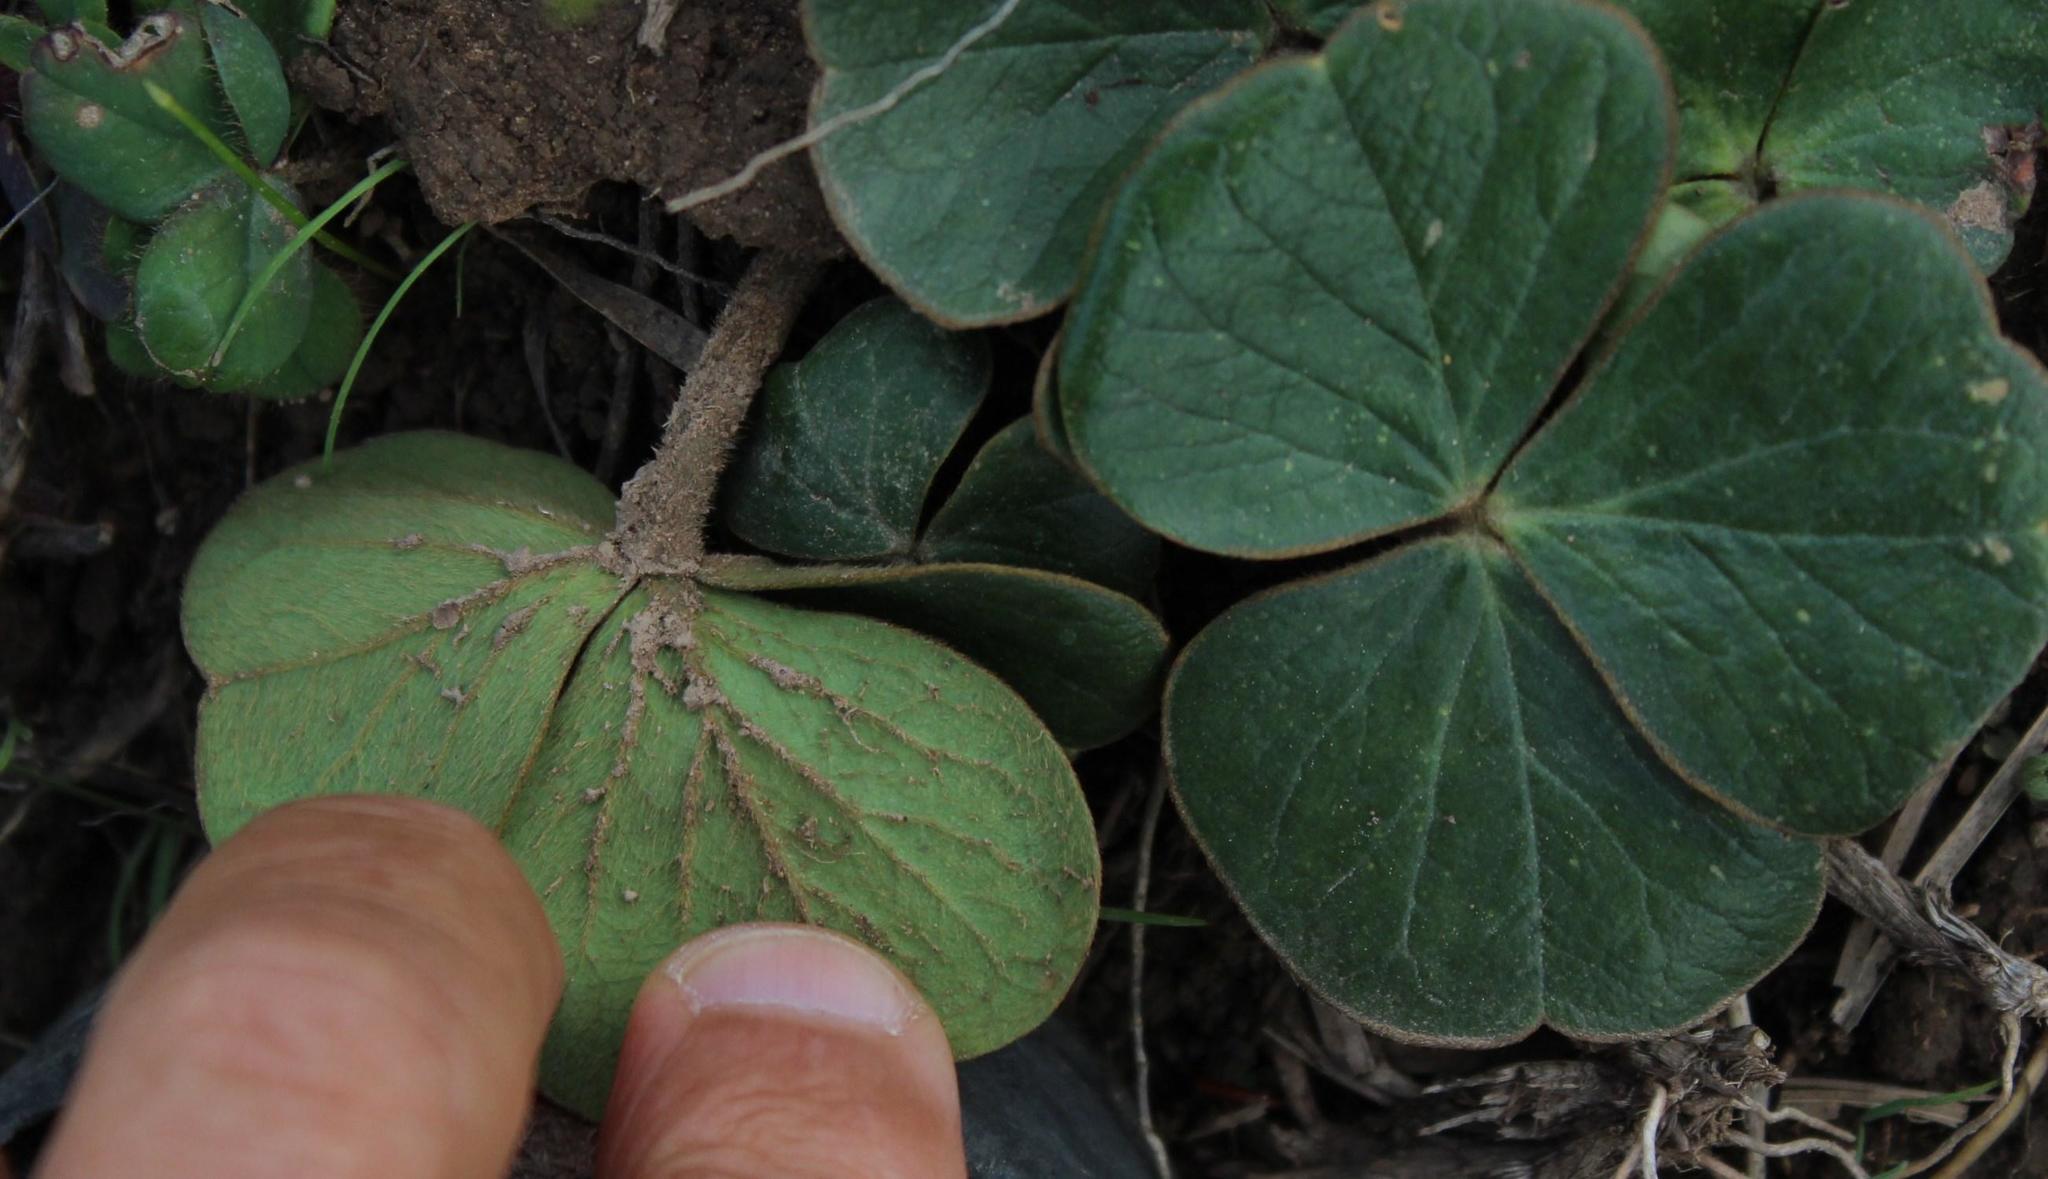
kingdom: Plantae
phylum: Tracheophyta
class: Magnoliopsida
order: Oxalidales
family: Oxalidaceae
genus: Oxalis
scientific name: Oxalis truncatula
